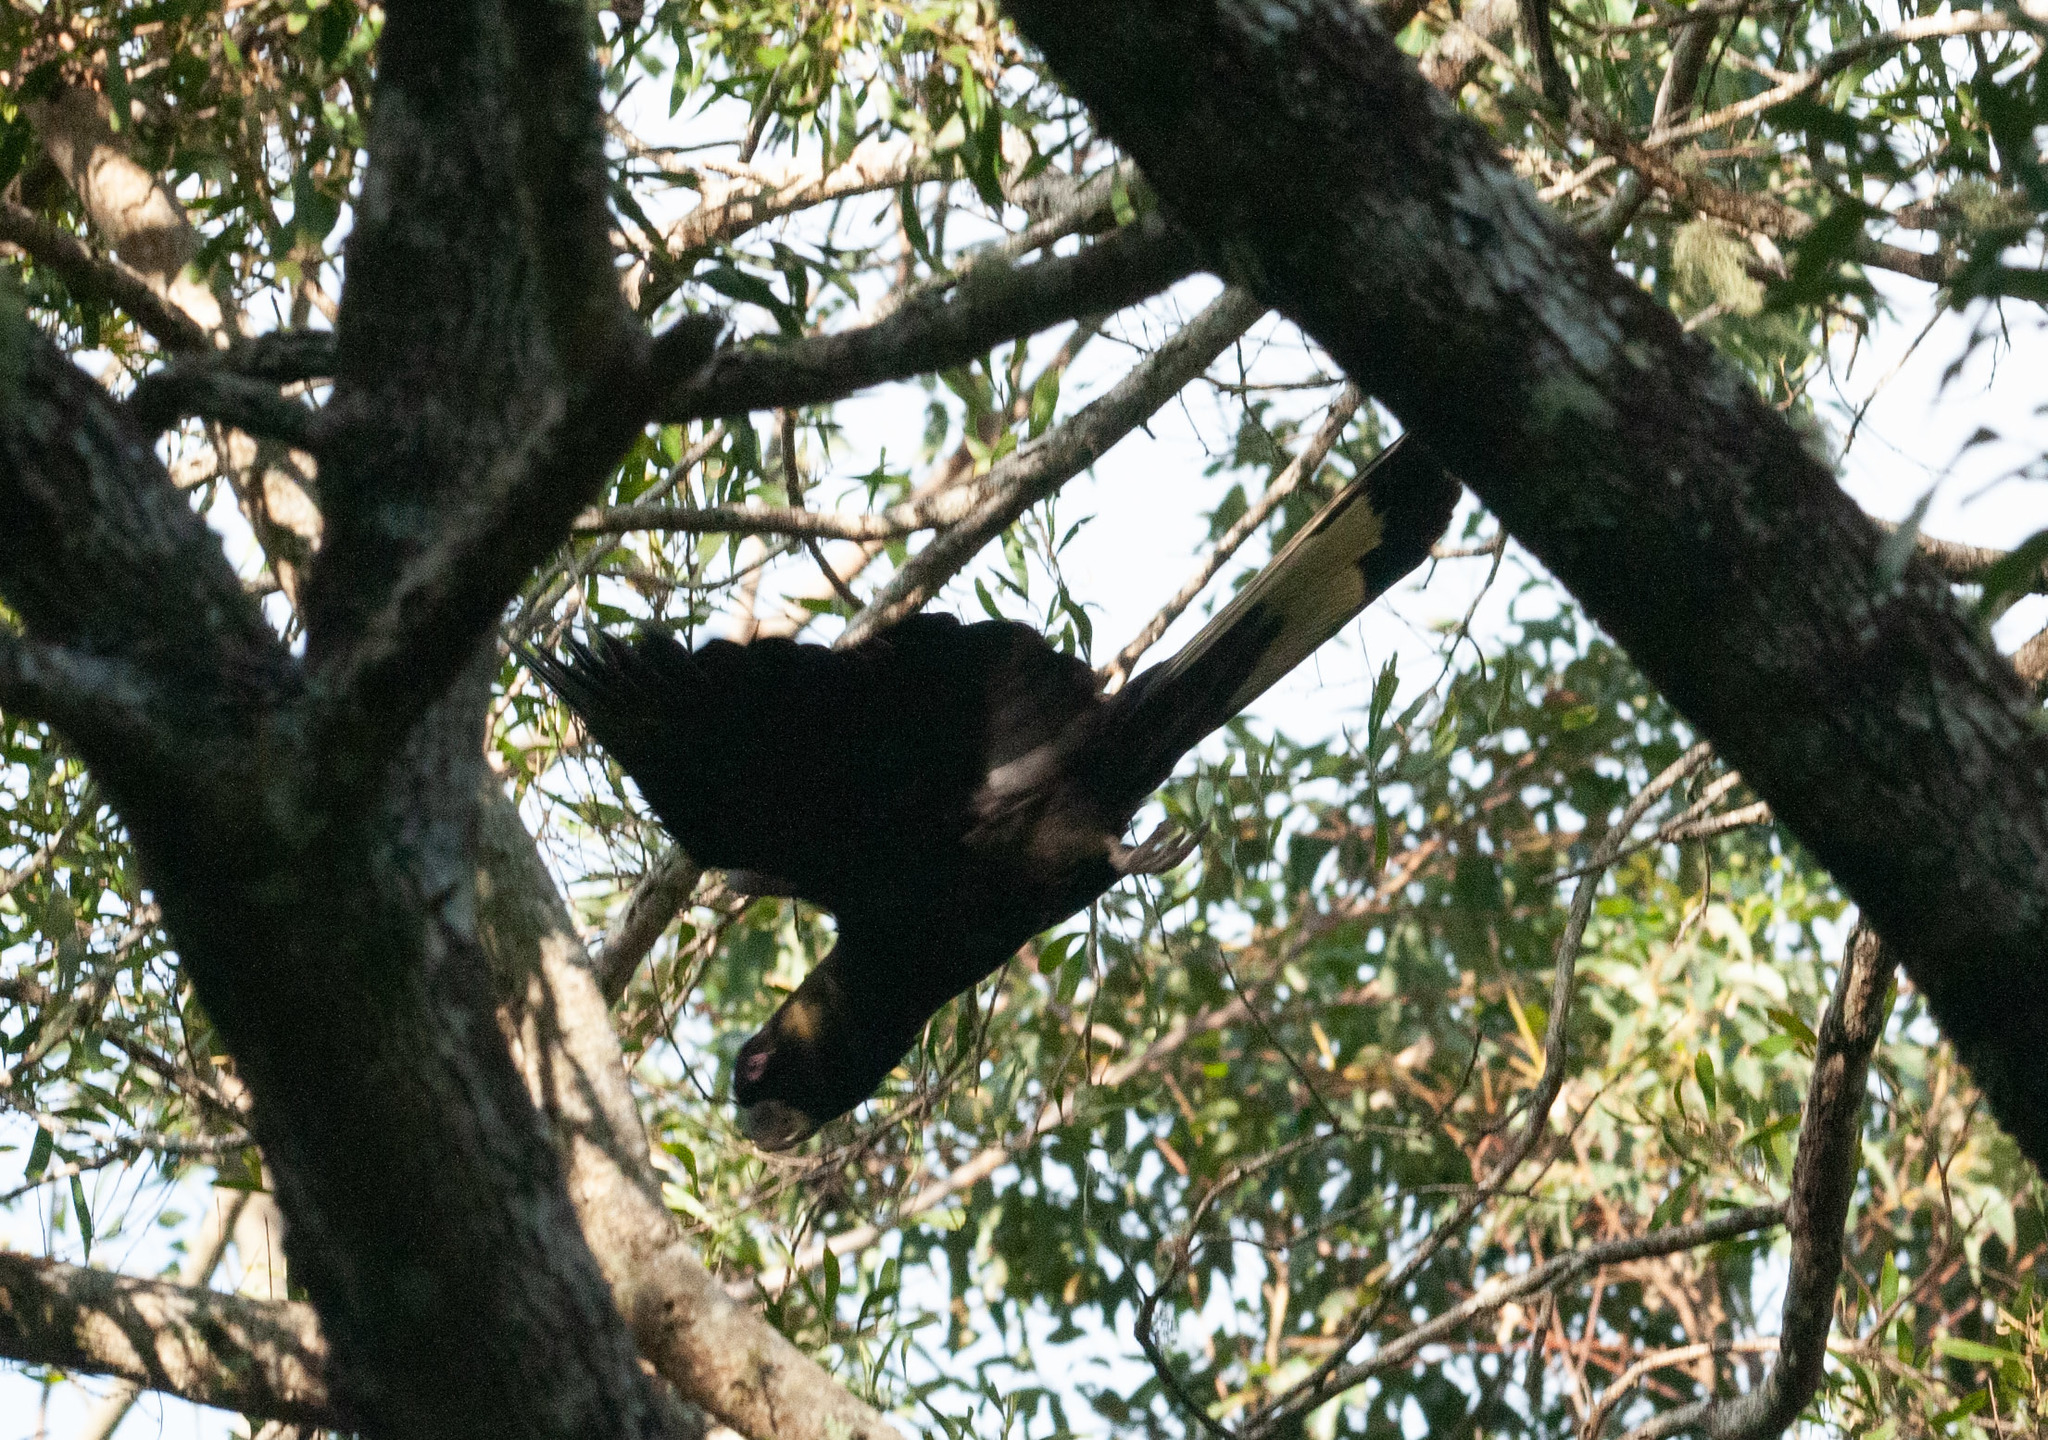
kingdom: Animalia
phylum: Chordata
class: Aves
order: Psittaciformes
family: Cacatuidae
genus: Zanda
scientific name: Zanda funerea
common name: Yellow-tailed black-cockatoo
